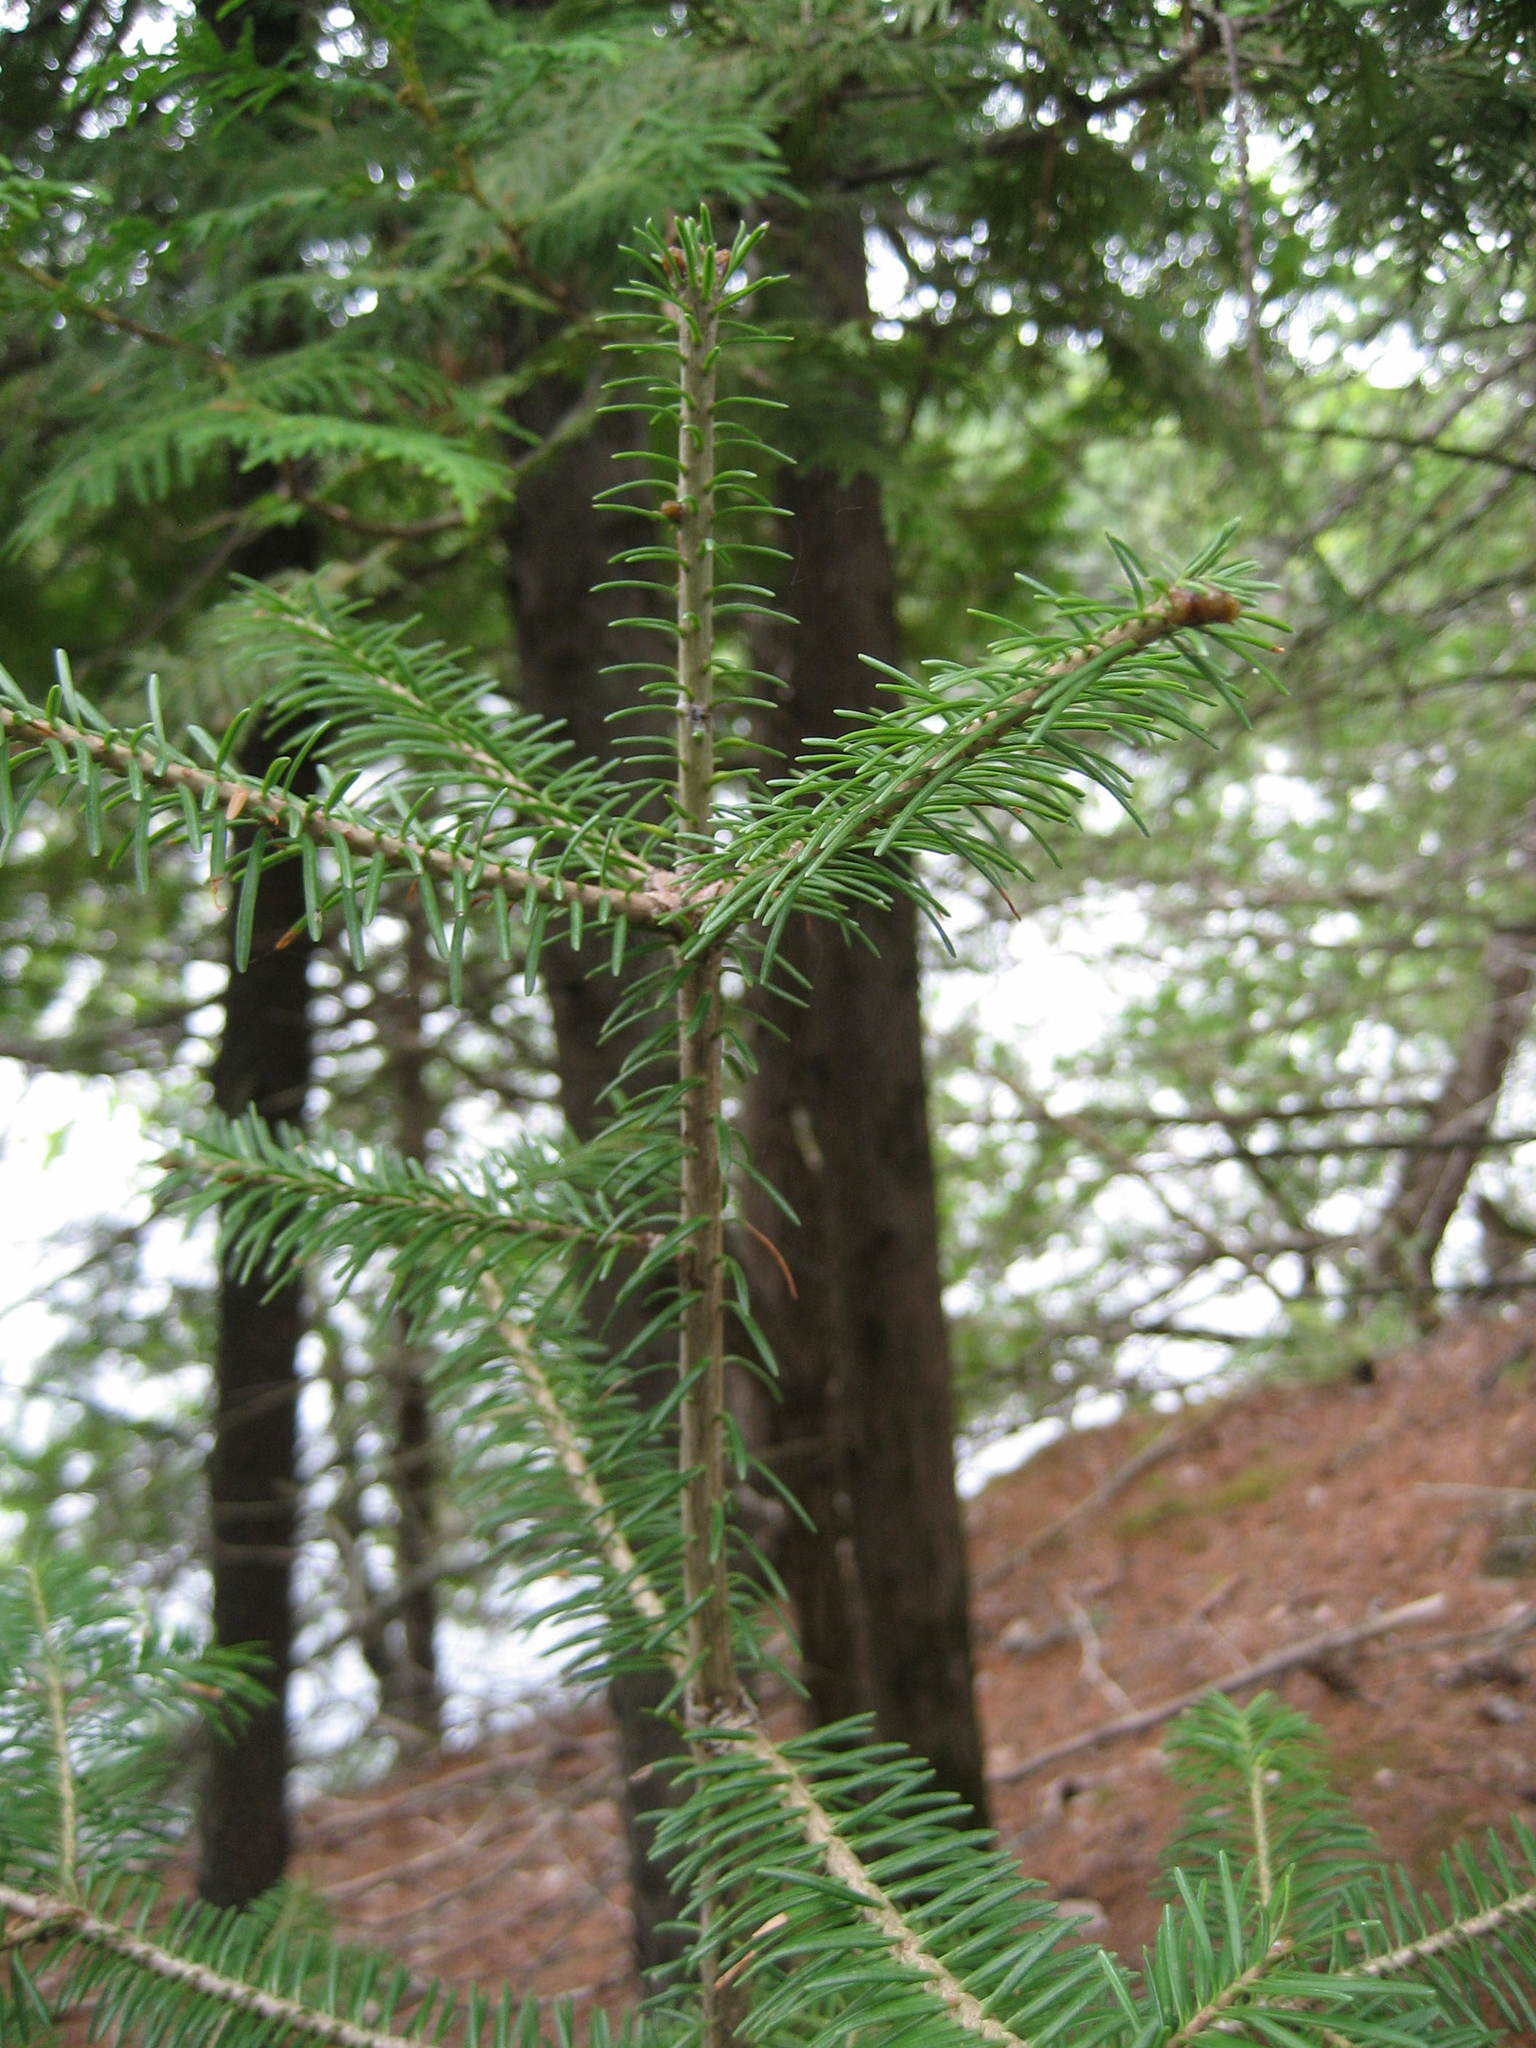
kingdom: Plantae
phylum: Tracheophyta
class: Pinopsida
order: Pinales
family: Pinaceae
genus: Abies
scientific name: Abies balsamea
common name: Balsam fir
